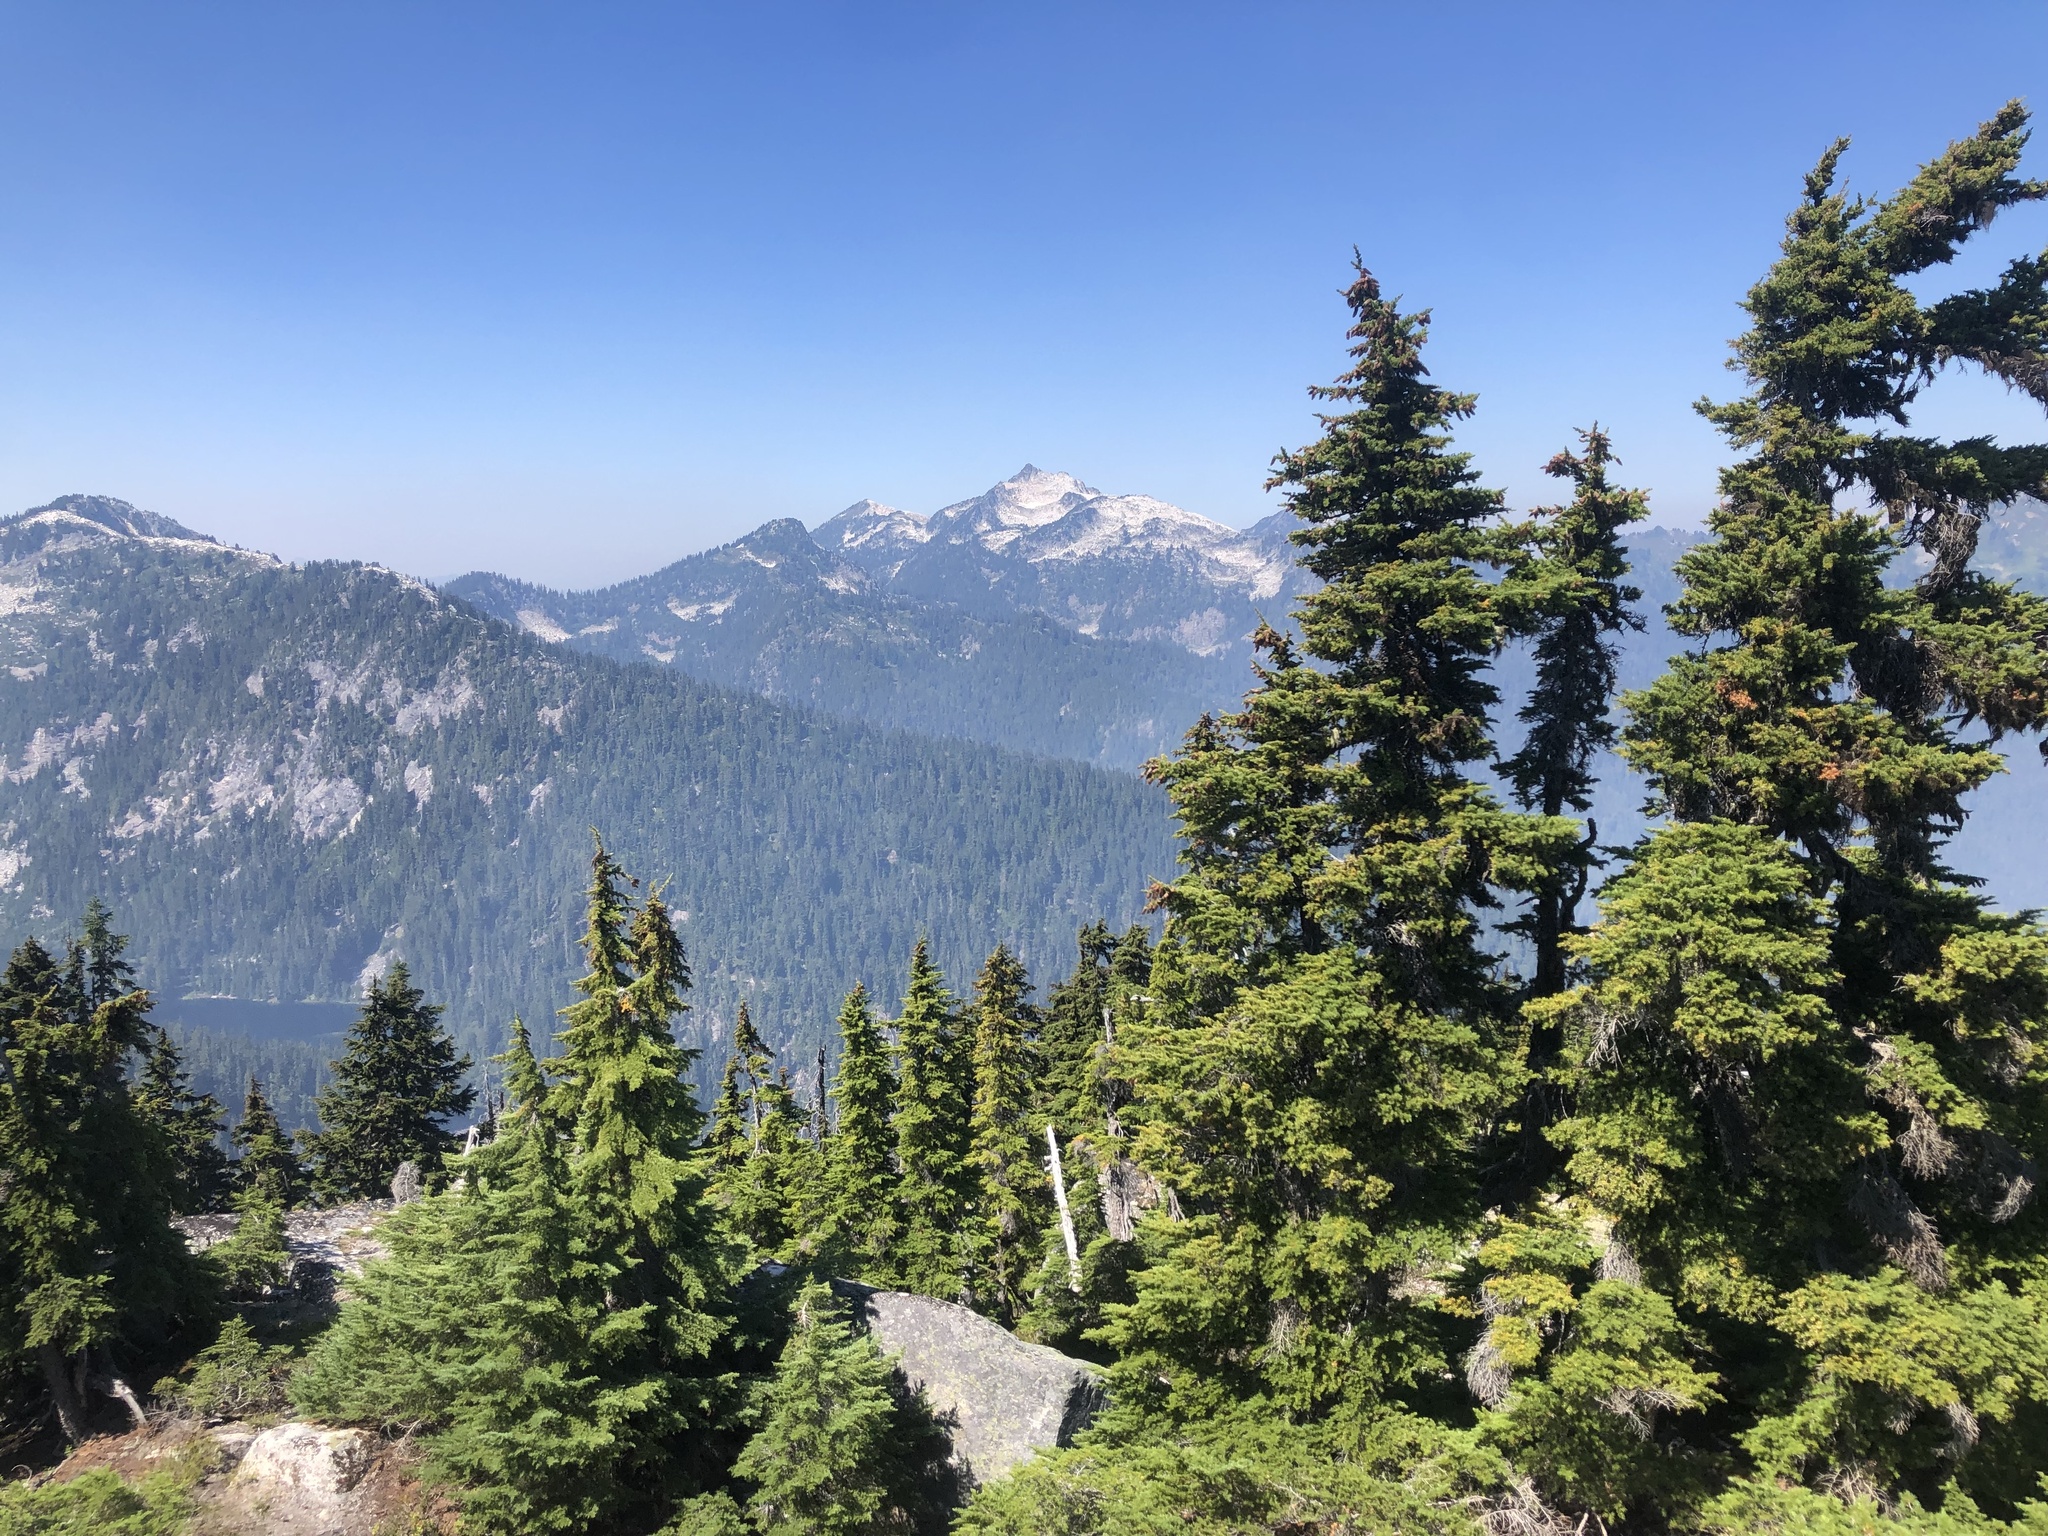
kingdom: Plantae
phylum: Tracheophyta
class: Pinopsida
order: Pinales
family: Pinaceae
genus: Tsuga
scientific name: Tsuga mertensiana
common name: Mountain hemlock
